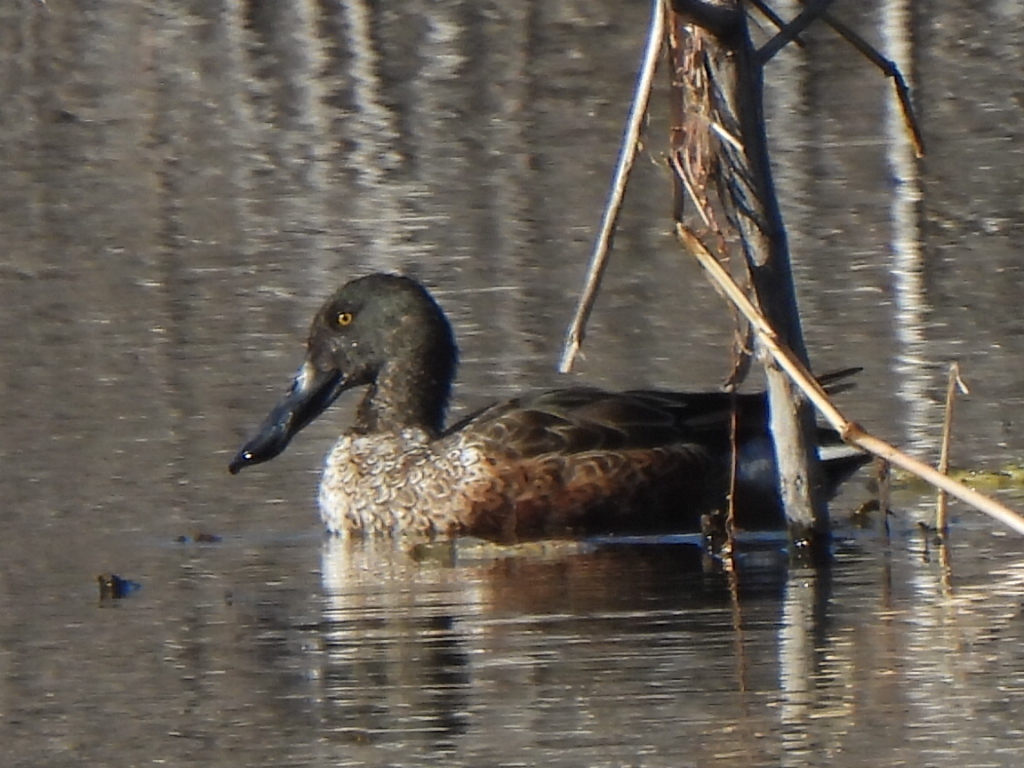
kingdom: Animalia
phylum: Chordata
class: Aves
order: Anseriformes
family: Anatidae
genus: Spatula
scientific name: Spatula clypeata
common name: Northern shoveler
